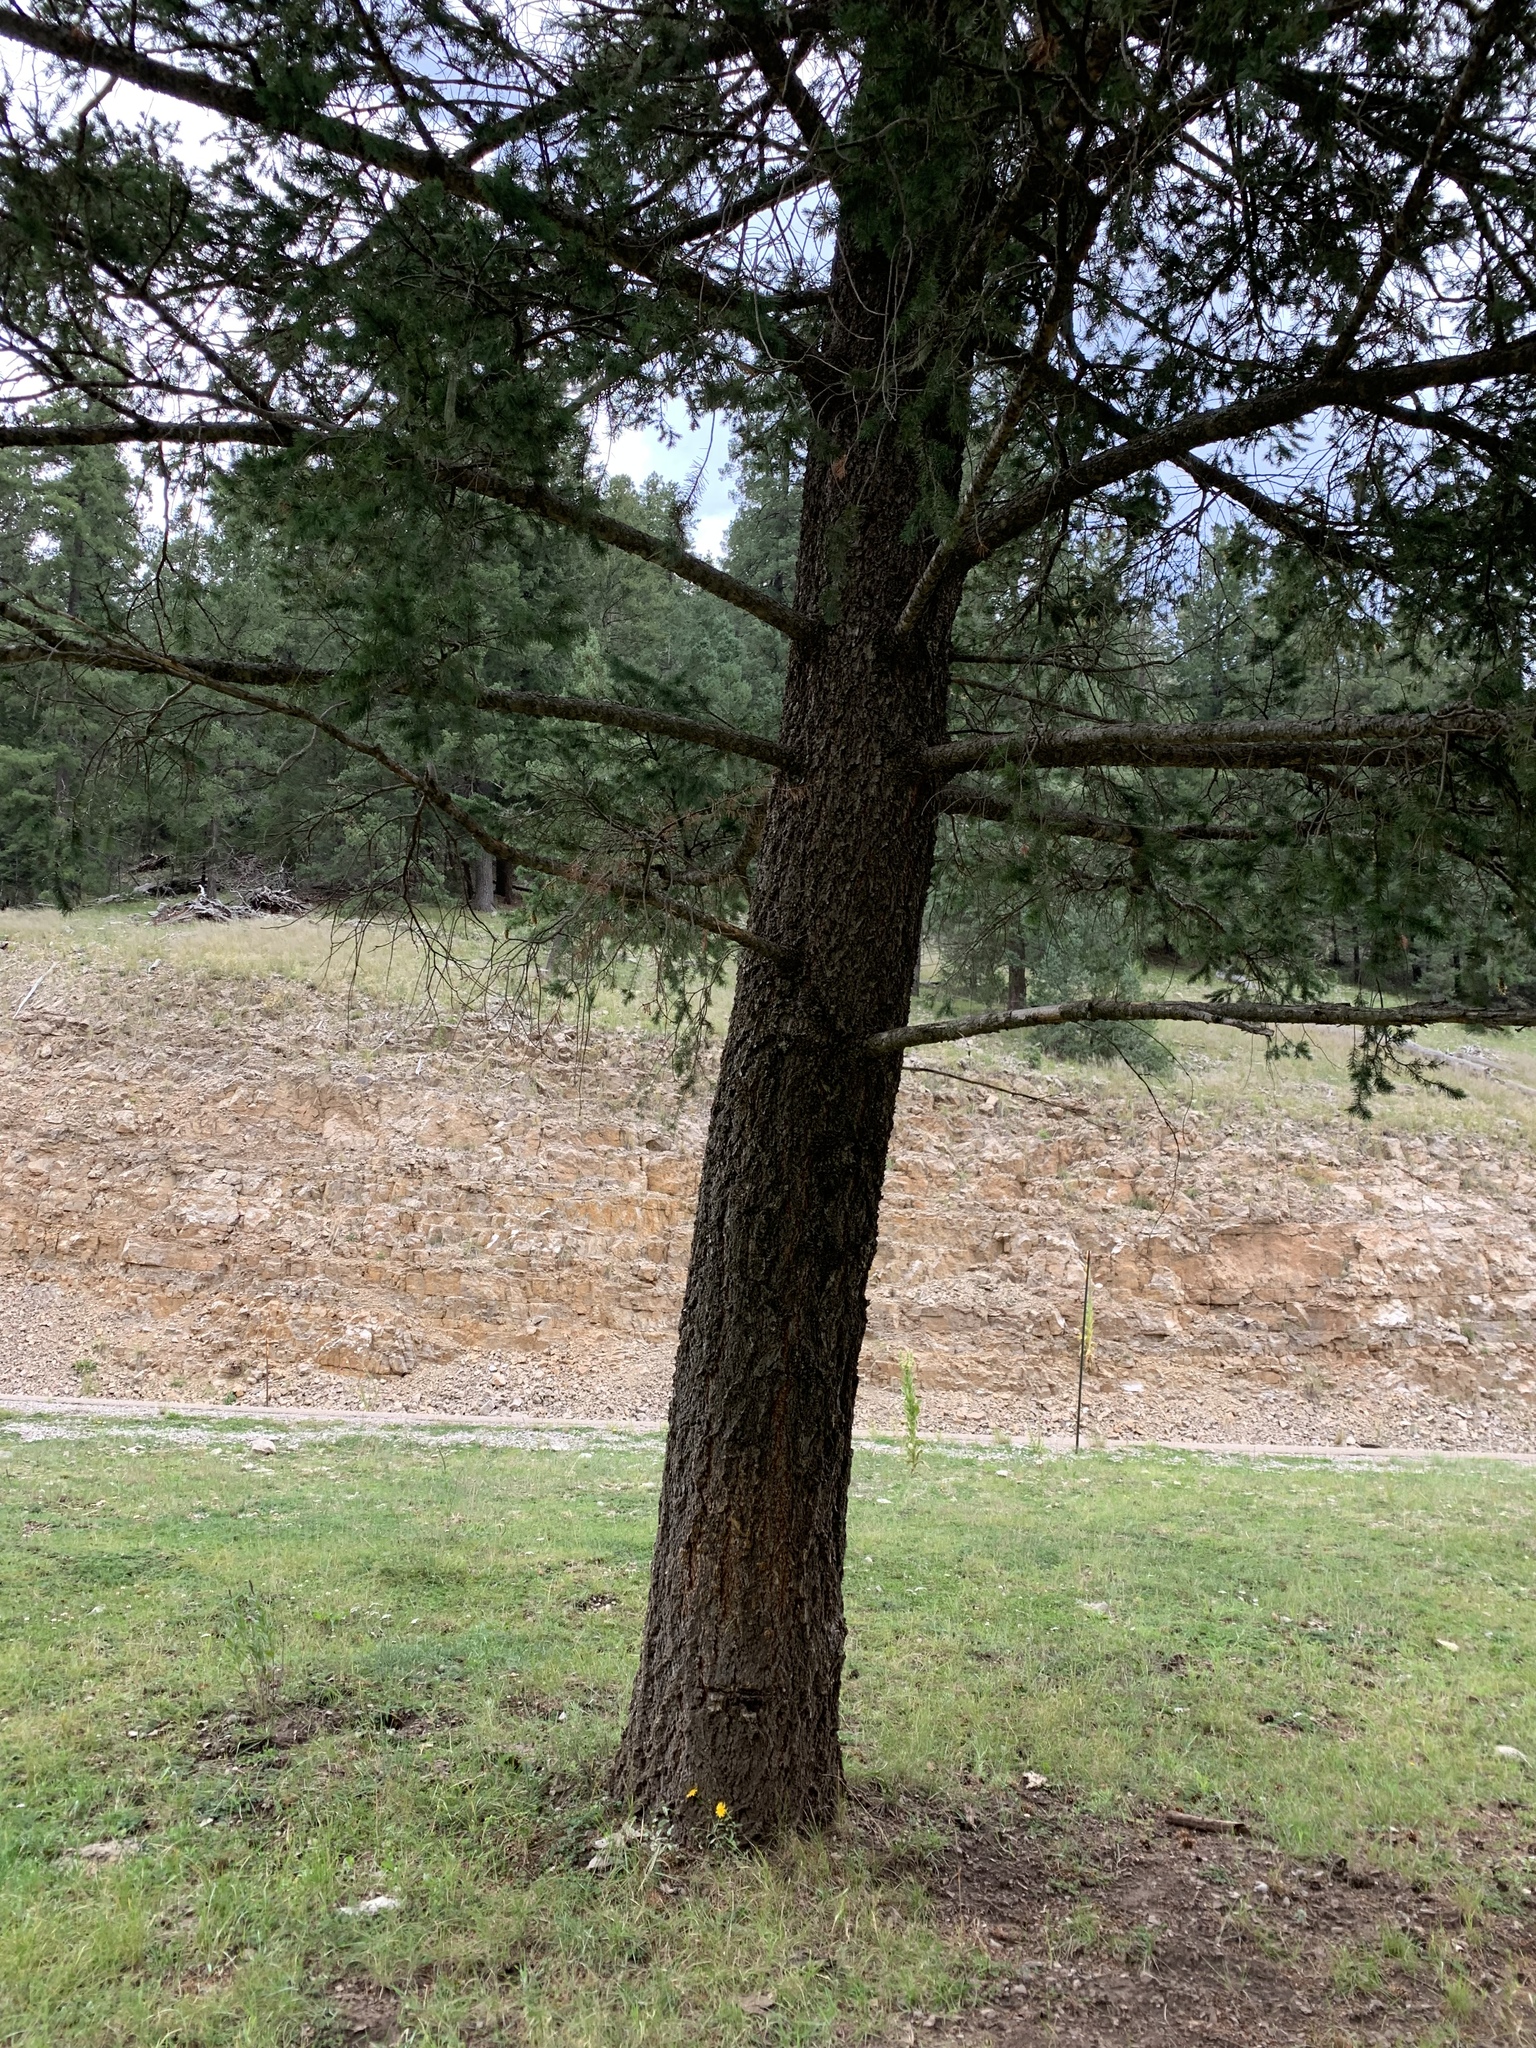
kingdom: Plantae
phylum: Tracheophyta
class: Pinopsida
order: Pinales
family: Pinaceae
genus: Pseudotsuga
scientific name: Pseudotsuga menziesii
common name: Douglas fir
